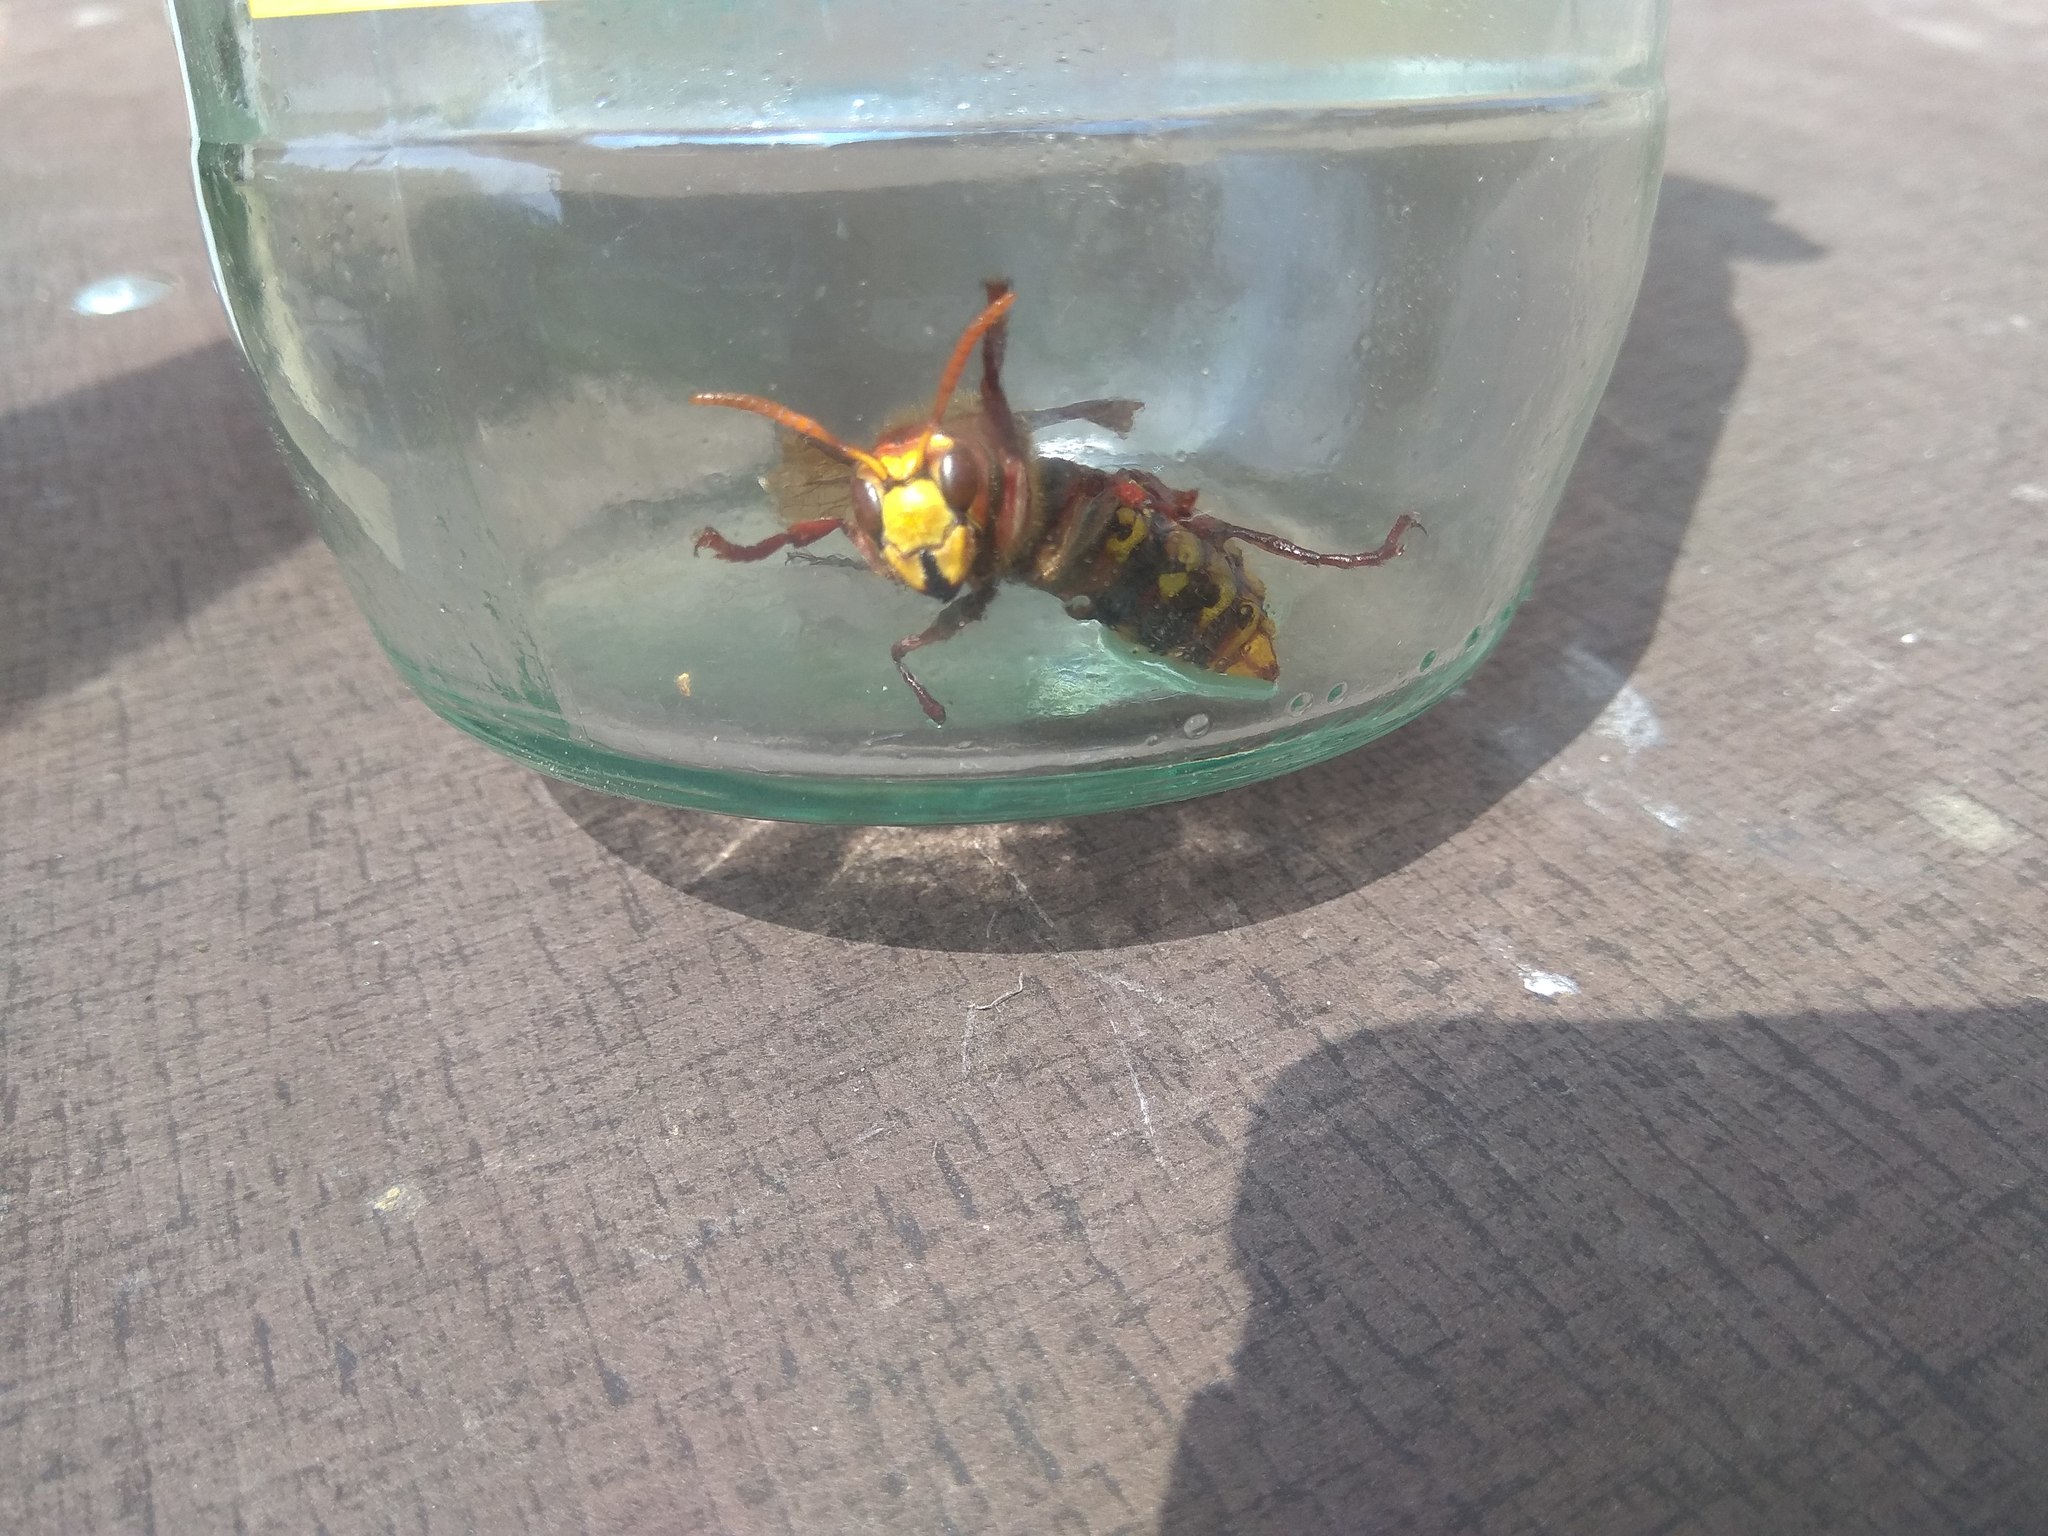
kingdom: Animalia
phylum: Arthropoda
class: Insecta
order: Hymenoptera
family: Vespidae
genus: Vespa
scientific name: Vespa crabro
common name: Hornet
